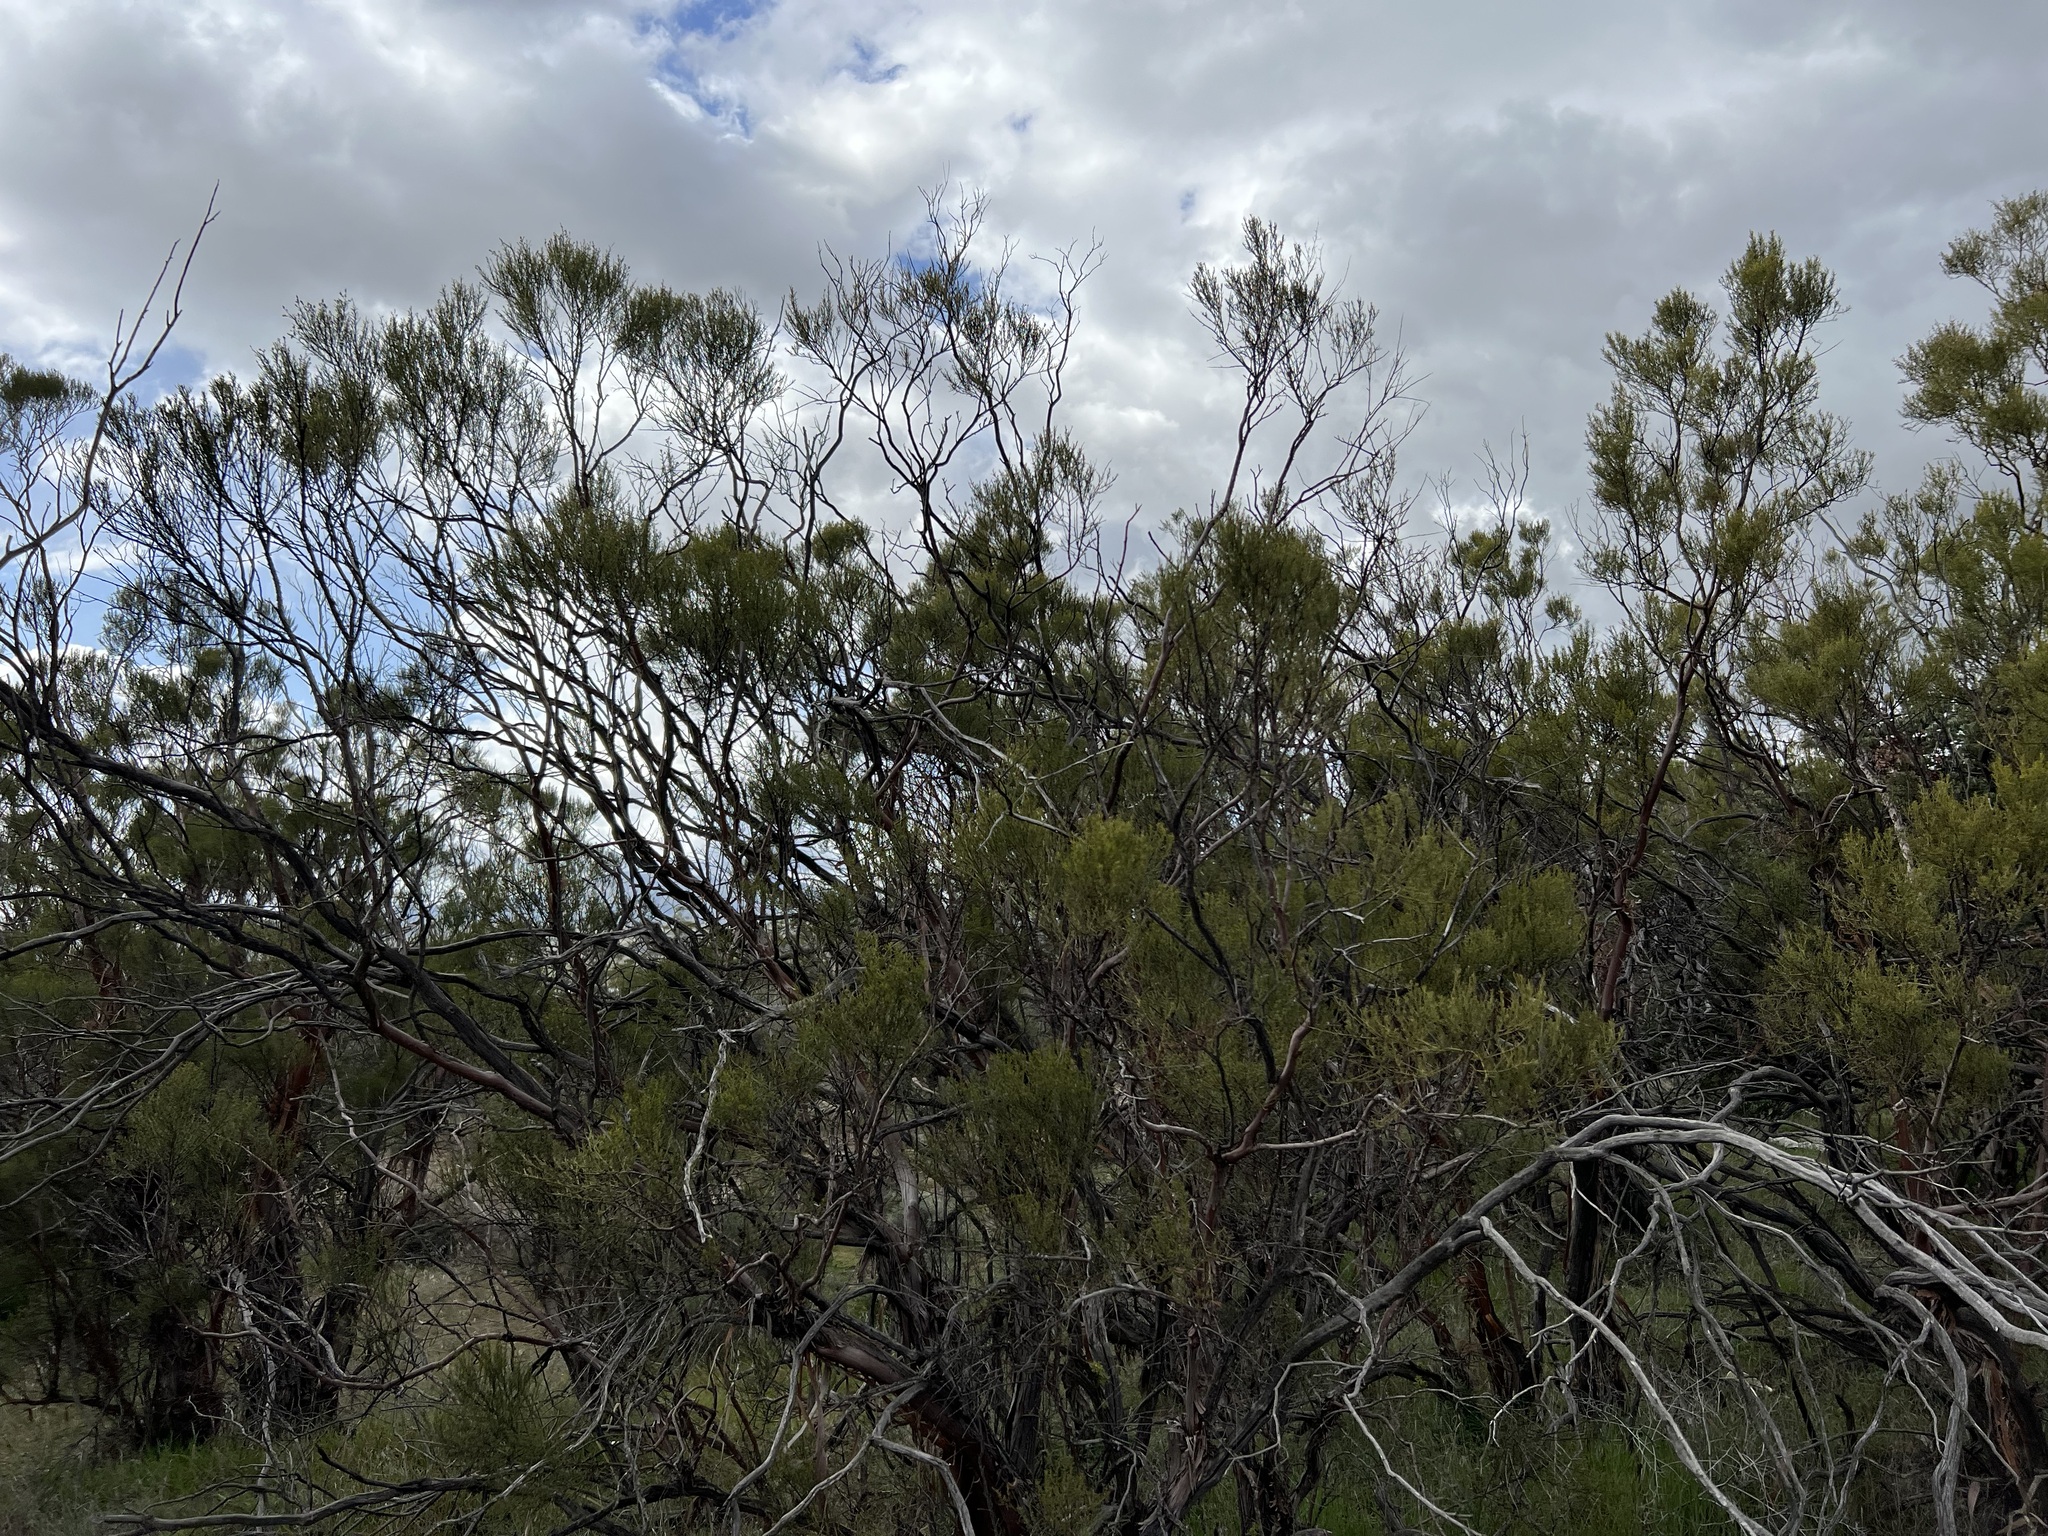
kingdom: Plantae
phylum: Tracheophyta
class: Magnoliopsida
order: Rosales
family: Rosaceae
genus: Adenostoma
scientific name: Adenostoma sparsifolium
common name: Red shank
